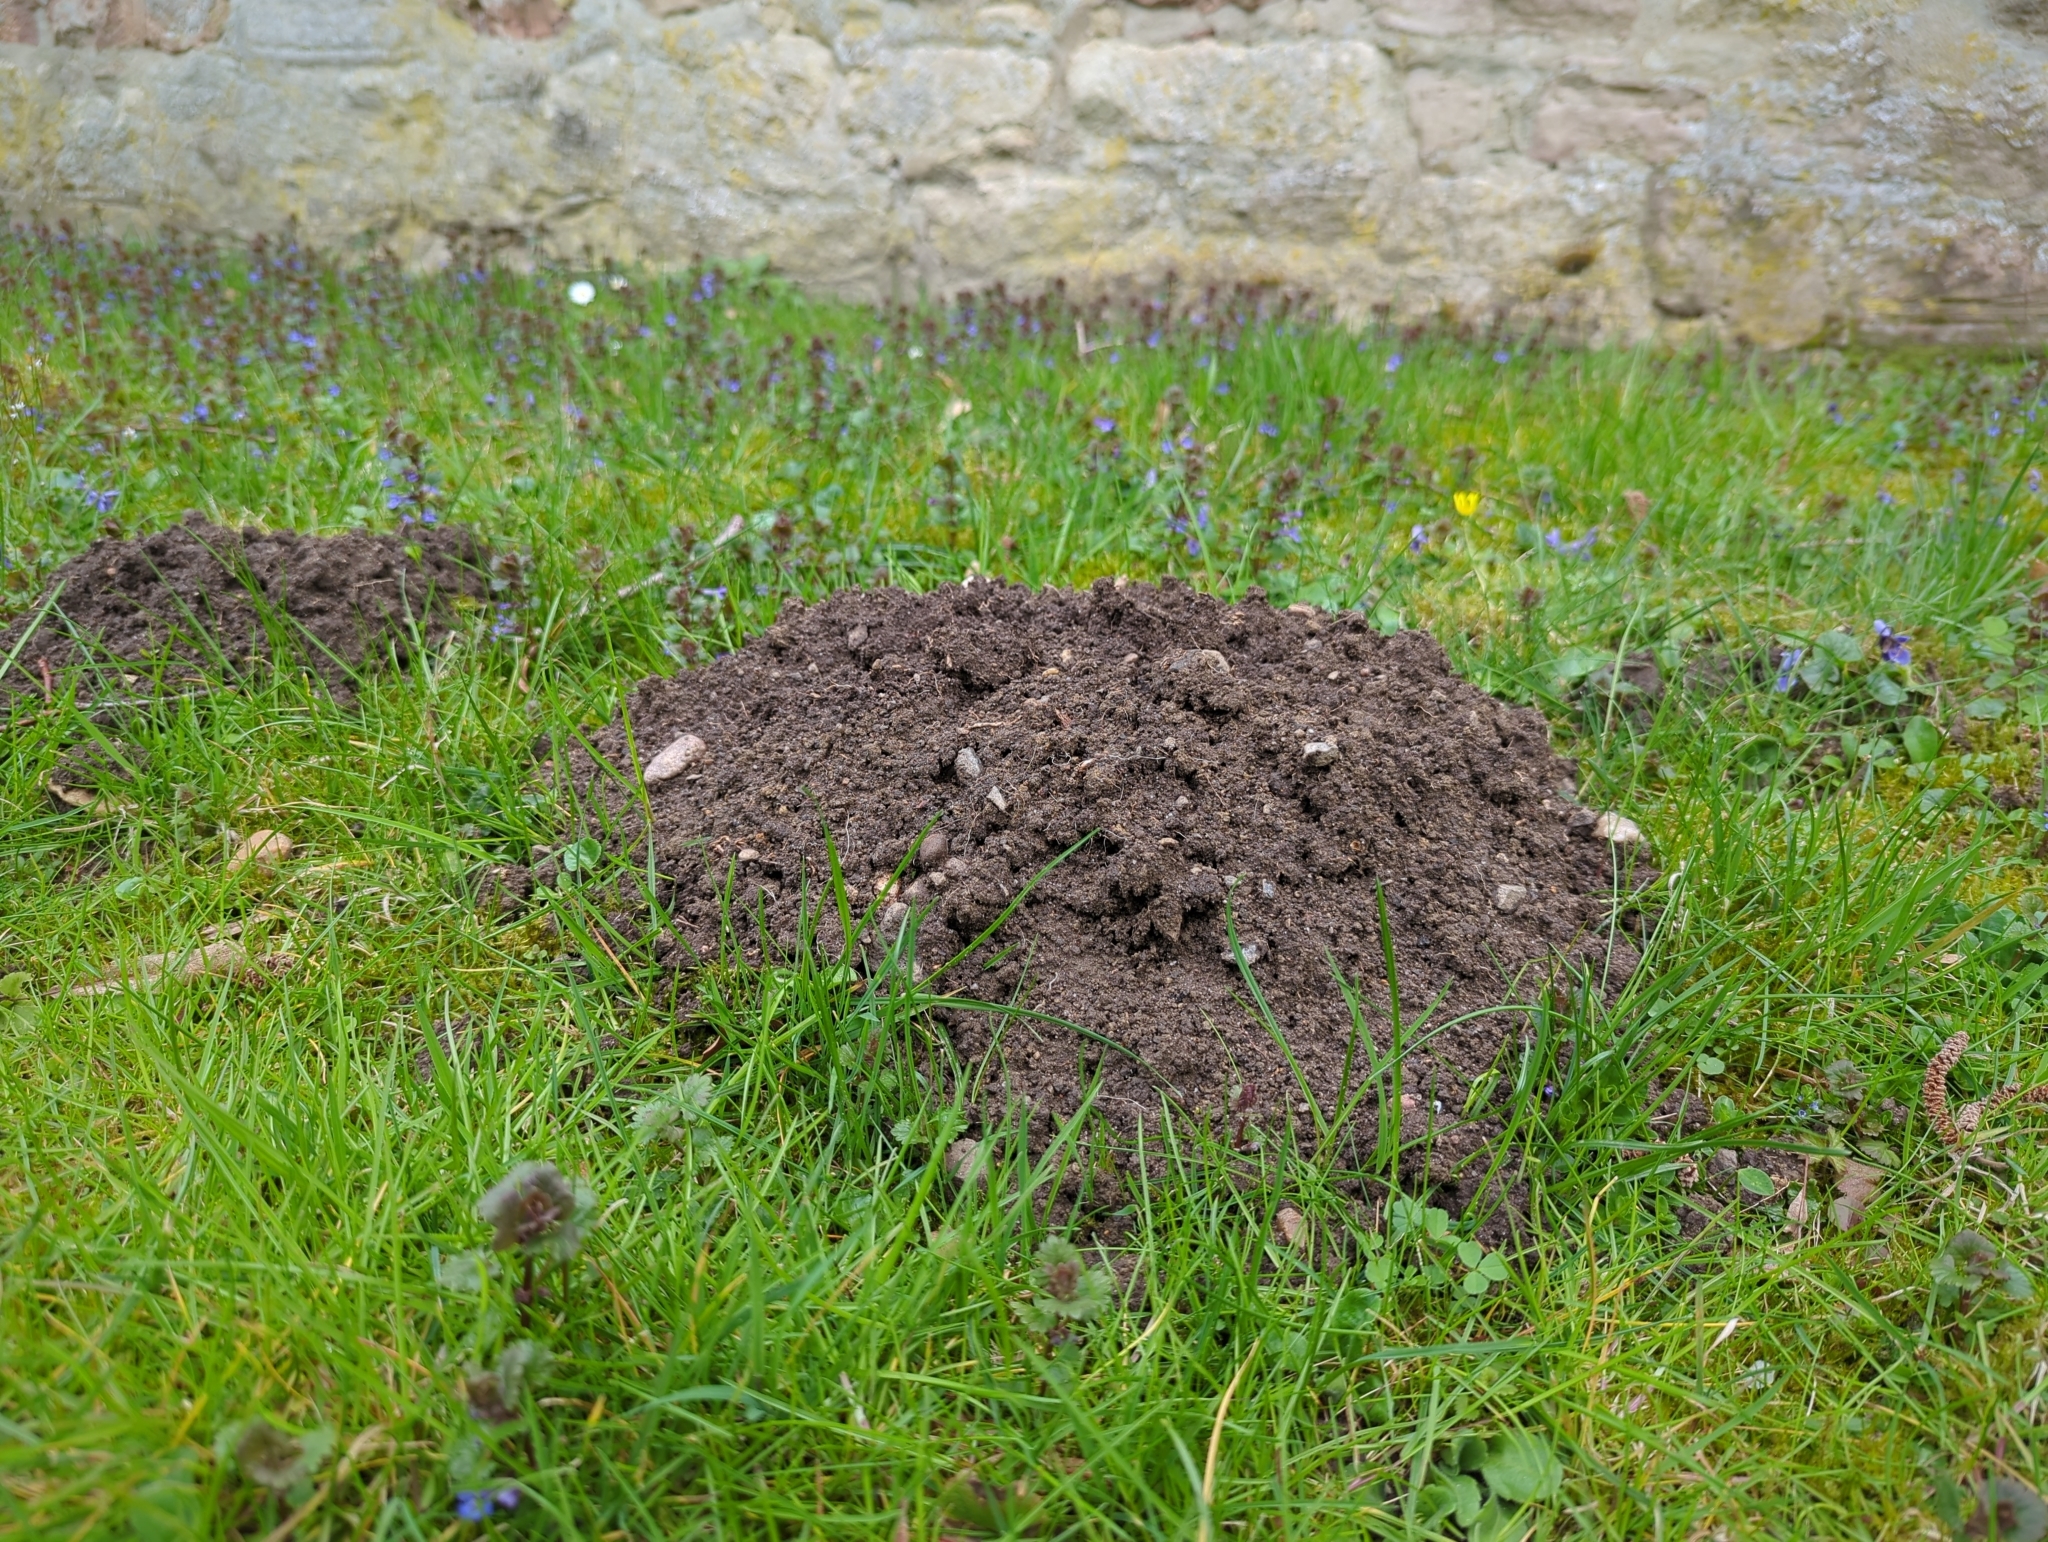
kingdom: Animalia
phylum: Chordata
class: Mammalia
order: Soricomorpha
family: Talpidae
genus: Talpa
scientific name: Talpa europaea
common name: European mole
